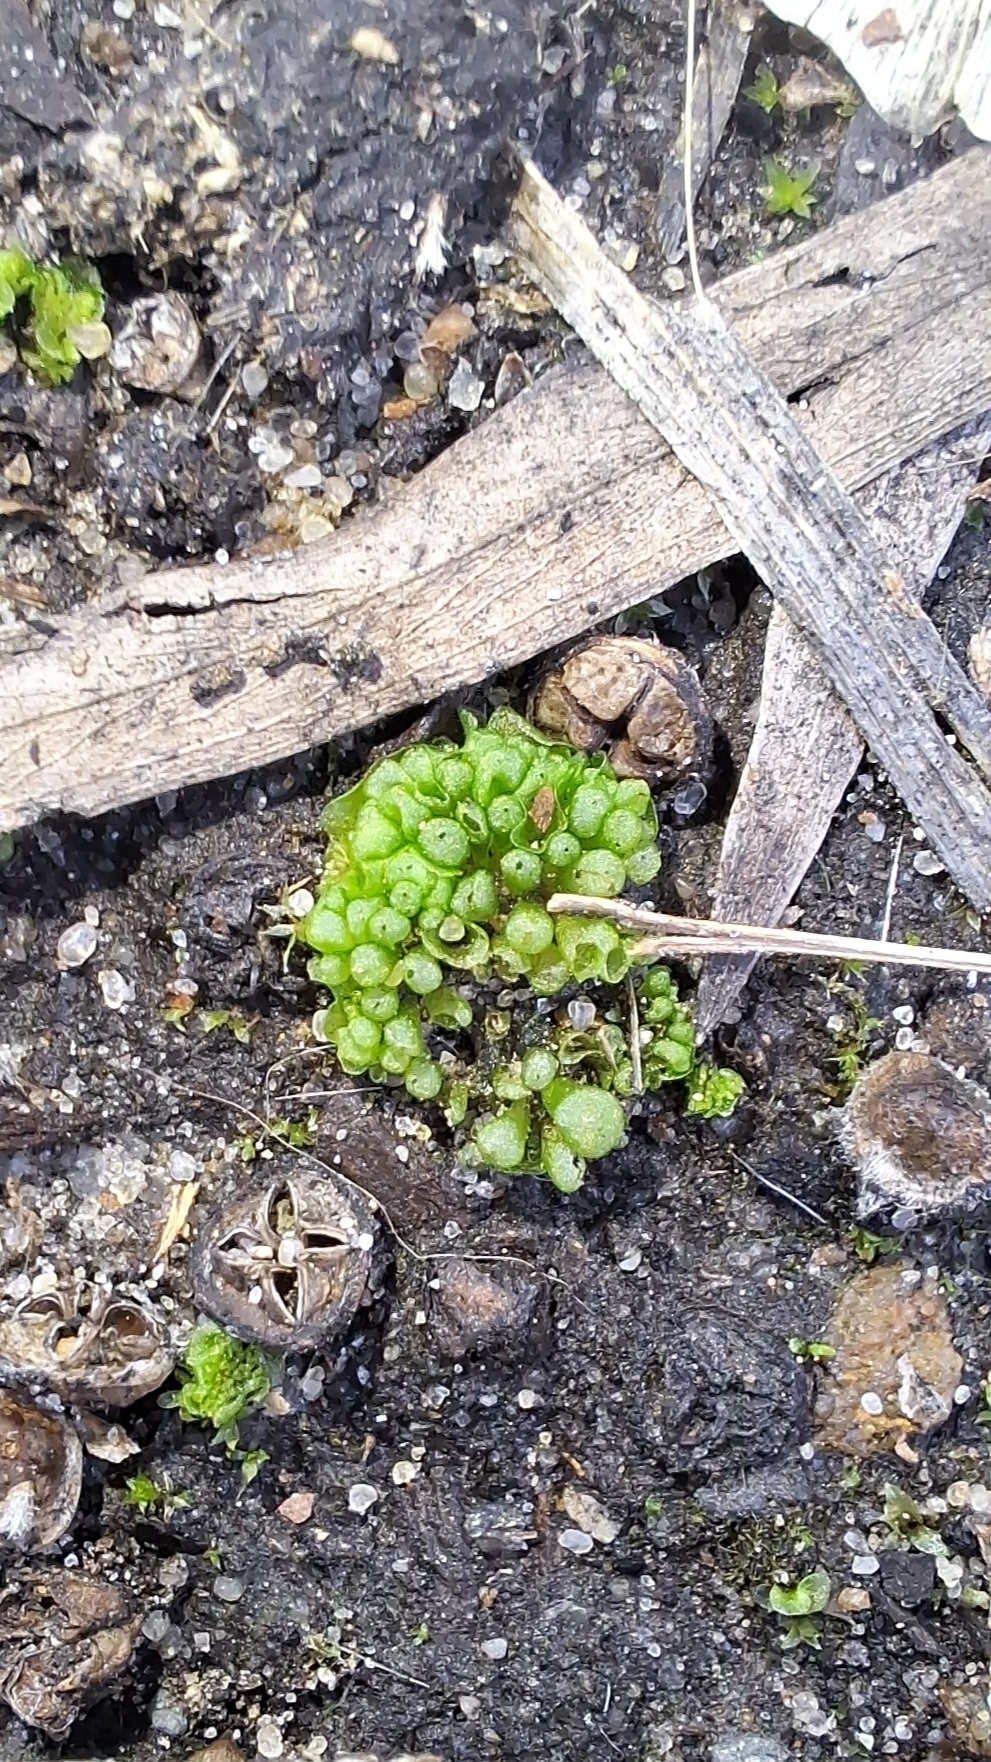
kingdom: Plantae
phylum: Marchantiophyta
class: Marchantiopsida
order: Sphaerocarpales
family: Sphaerocarpaceae
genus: Sphaerocarpos
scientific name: Sphaerocarpos texanus
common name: Texas balloonwort
